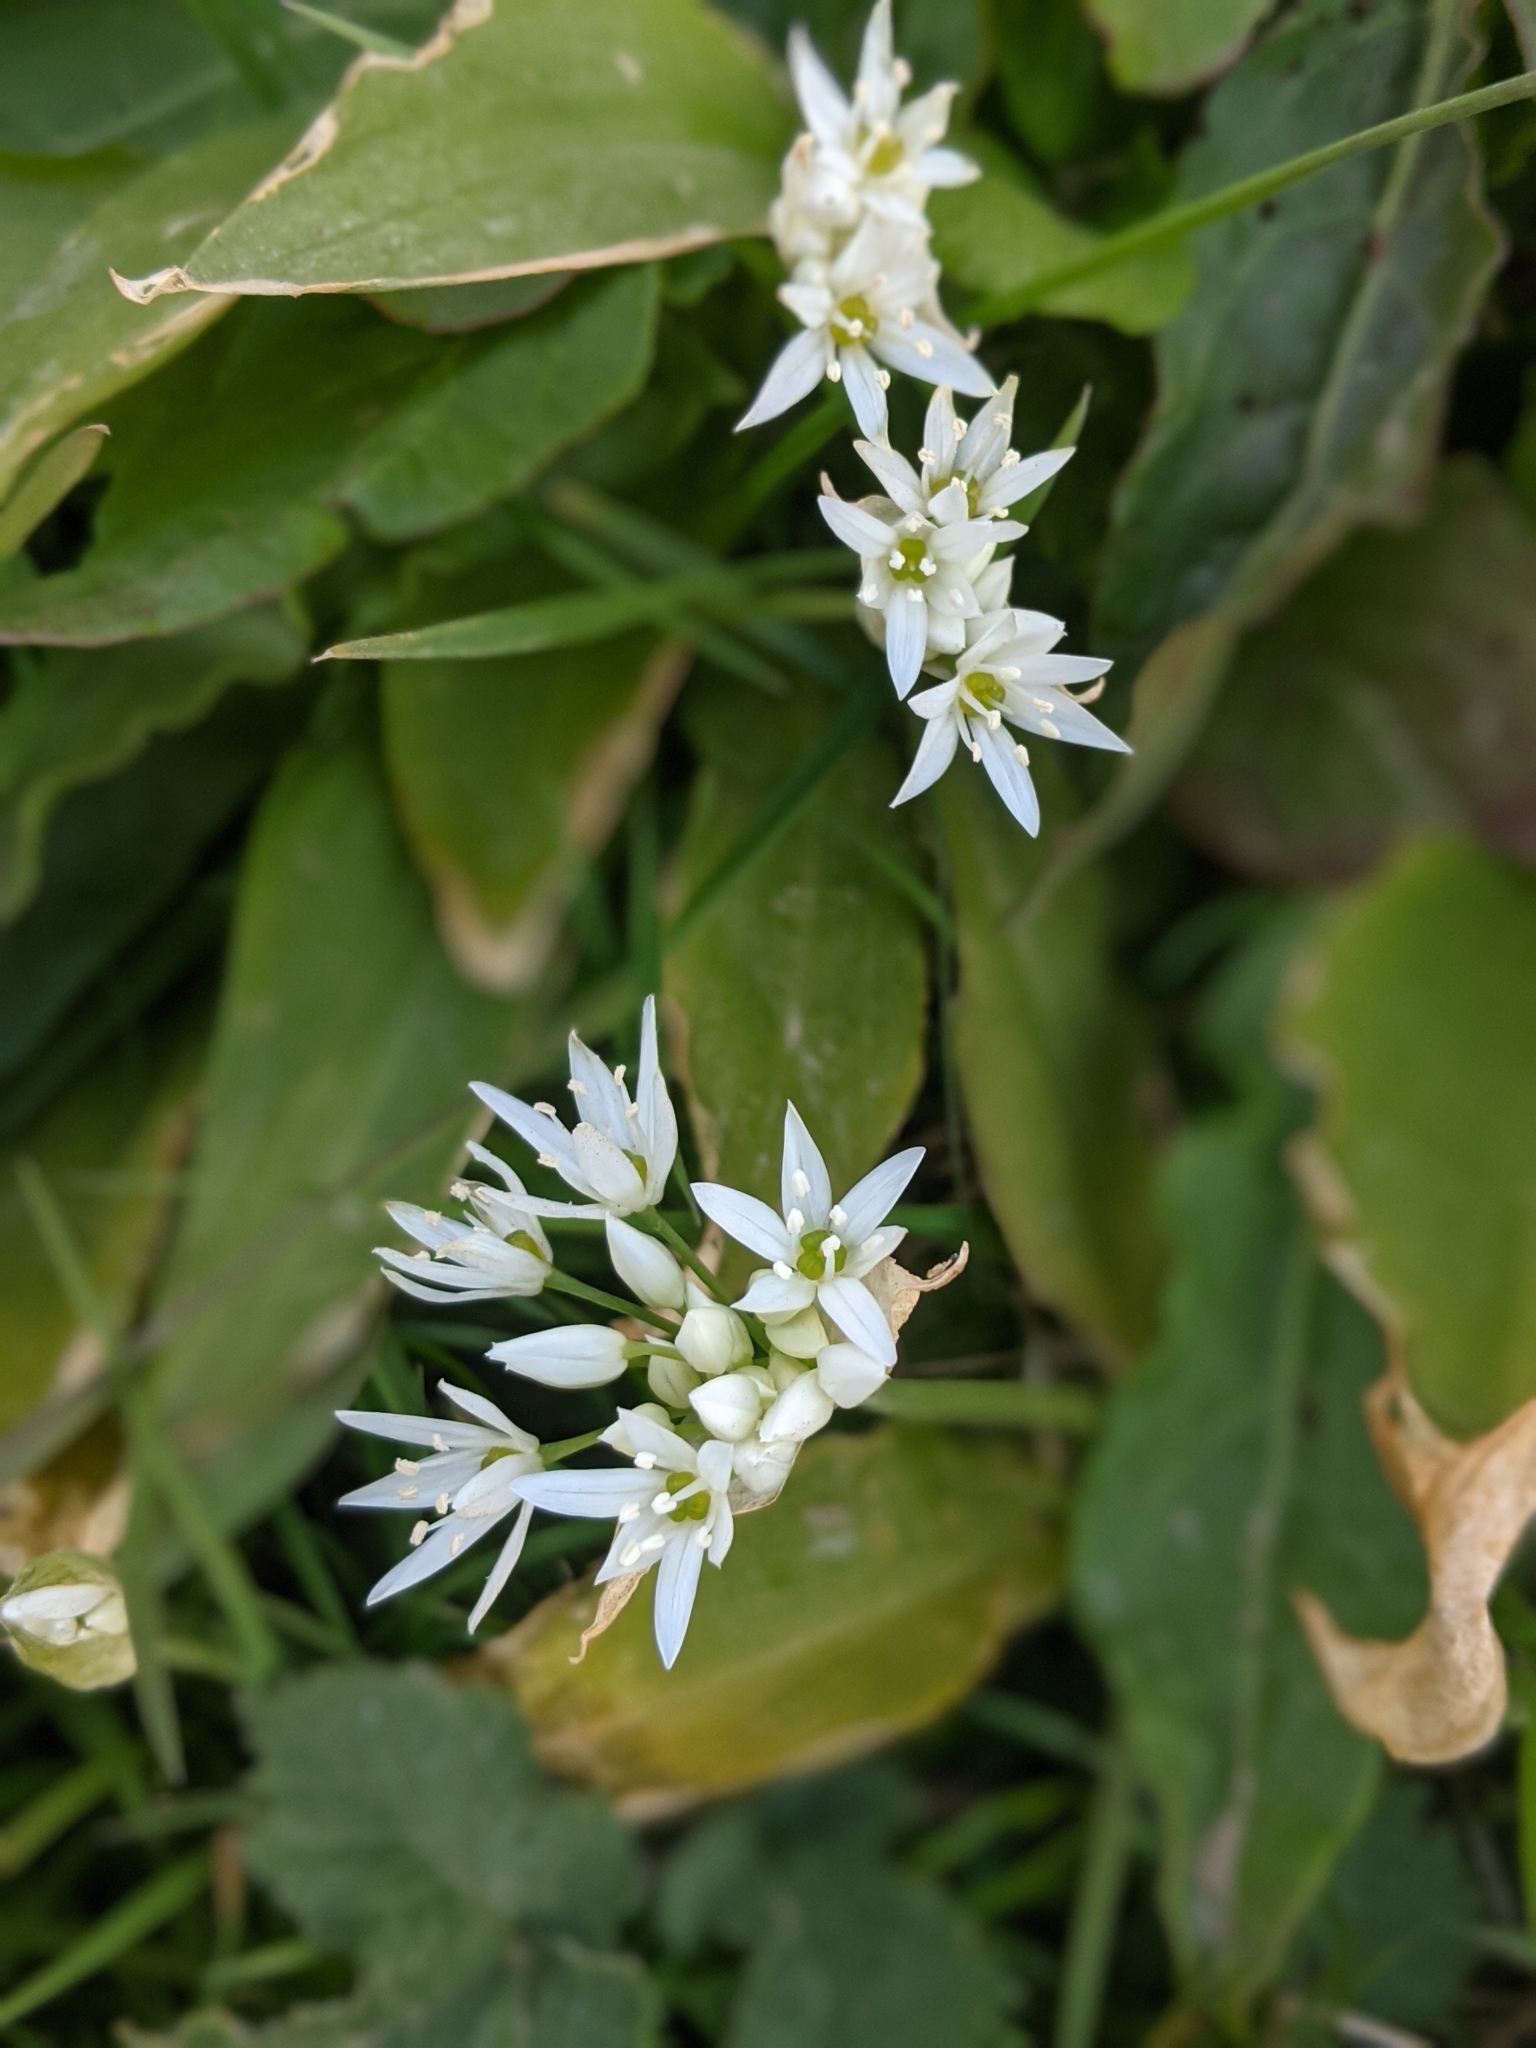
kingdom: Plantae
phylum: Tracheophyta
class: Liliopsida
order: Asparagales
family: Amaryllidaceae
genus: Allium
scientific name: Allium ursinum
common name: Ramsons
